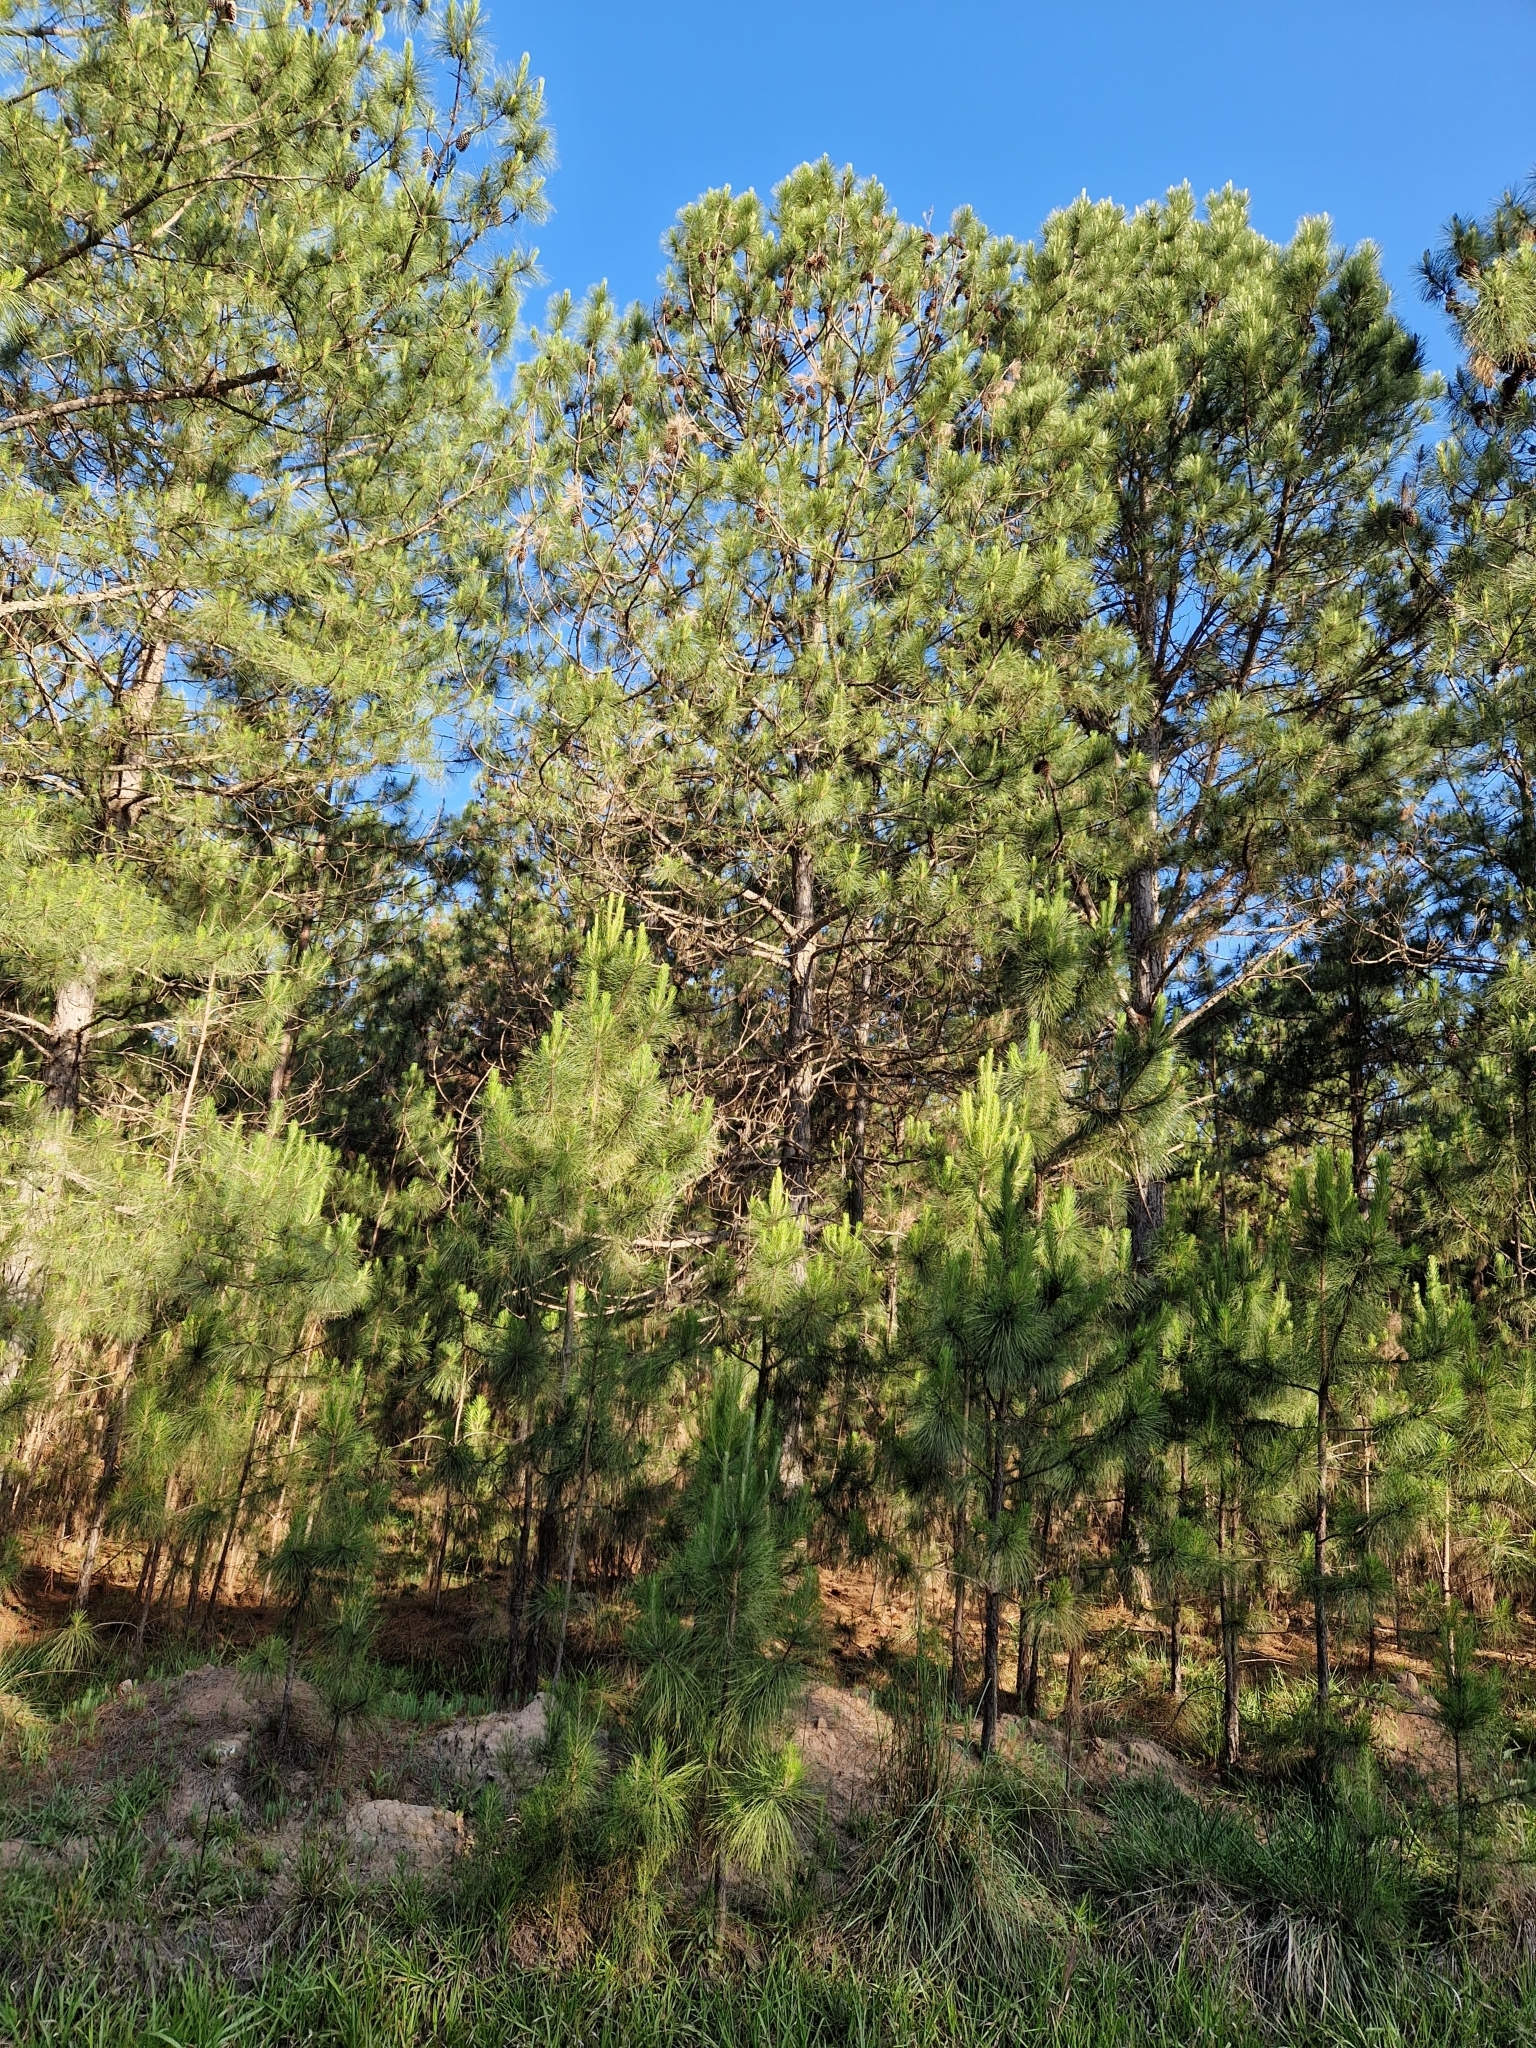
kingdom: Plantae
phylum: Tracheophyta
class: Pinopsida
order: Pinales
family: Pinaceae
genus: Pinus
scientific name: Pinus elliottii
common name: Slash pine
